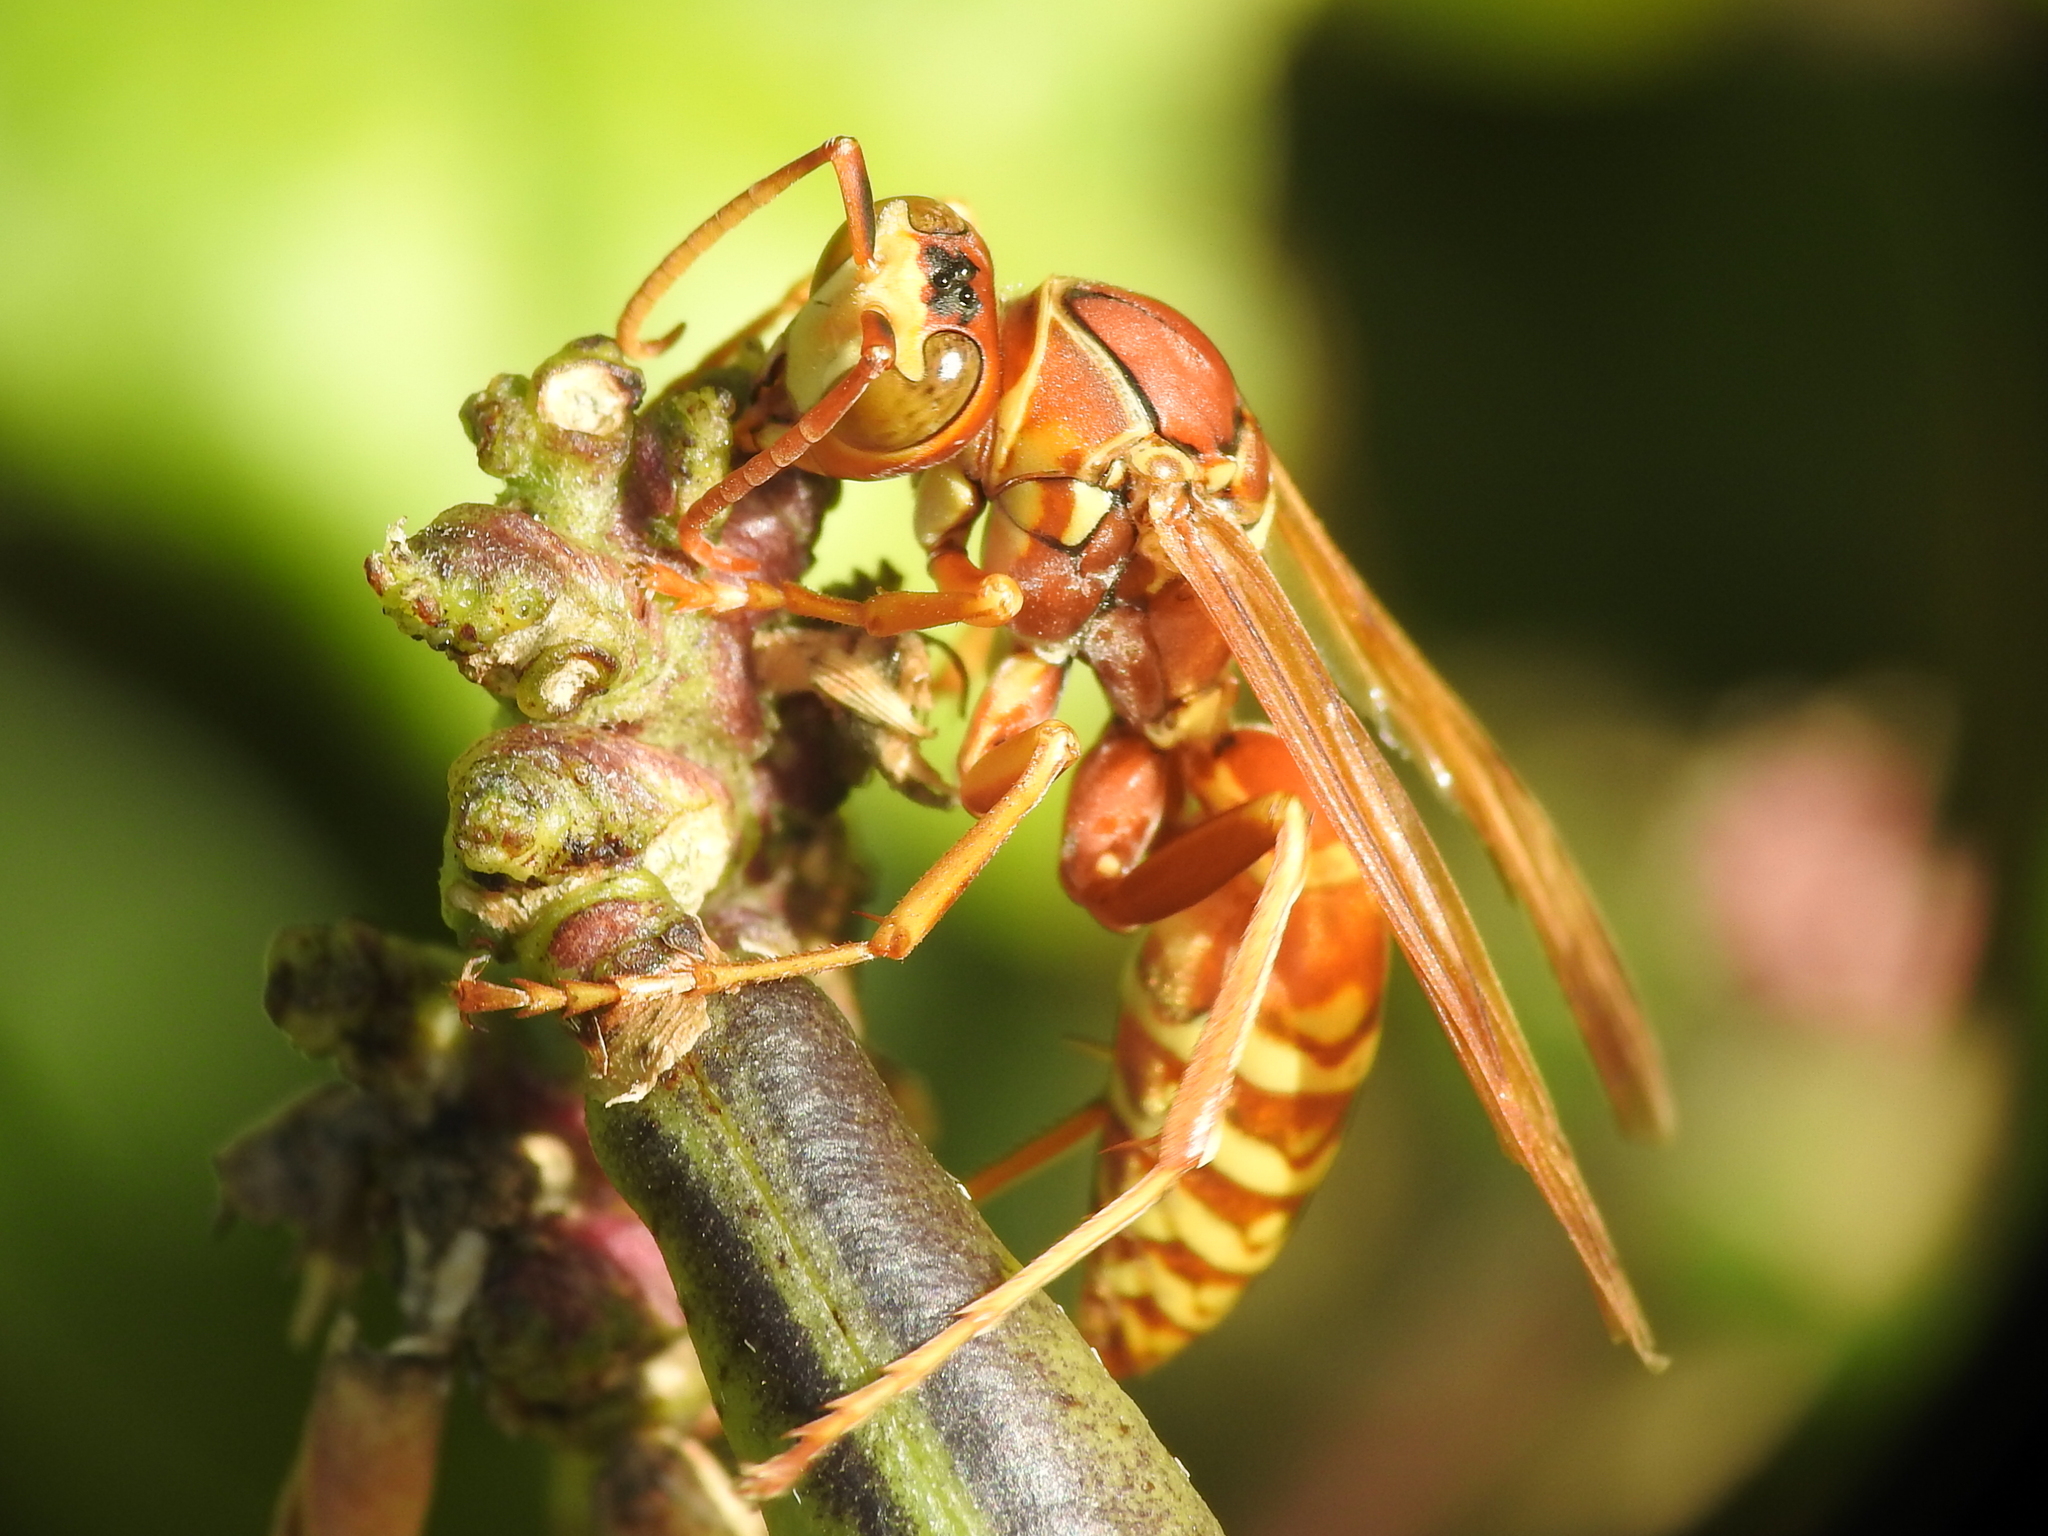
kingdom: Animalia
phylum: Arthropoda
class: Insecta
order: Hymenoptera
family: Eumenidae
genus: Polistes
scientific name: Polistes apachus
